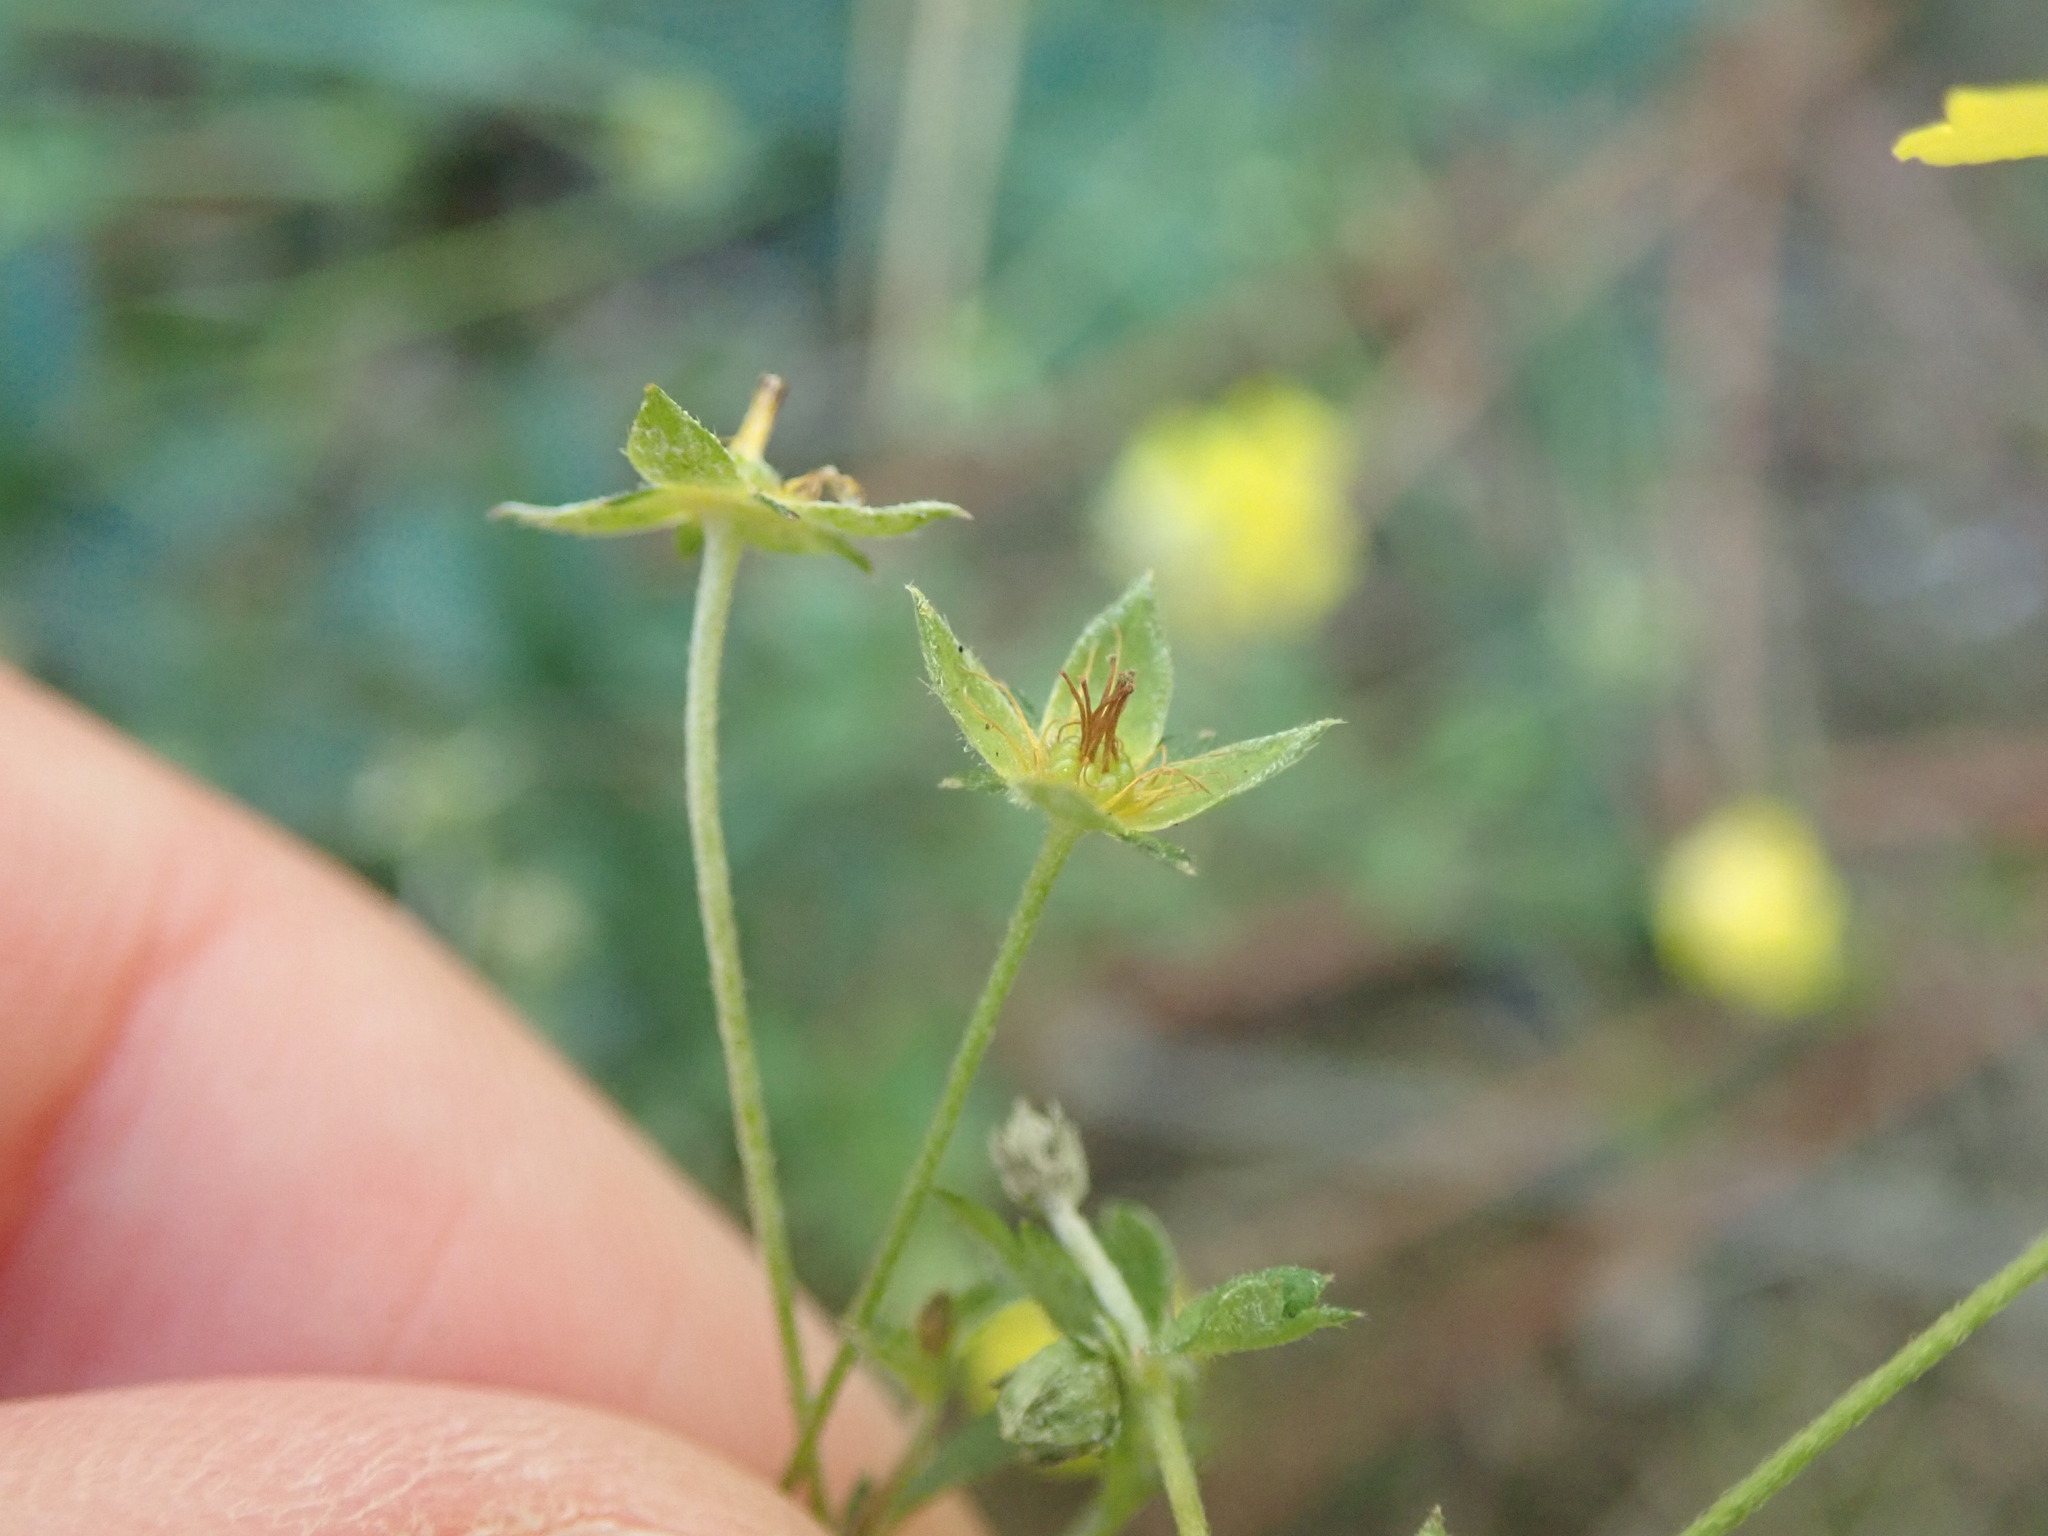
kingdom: Plantae
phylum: Tracheophyta
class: Magnoliopsida
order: Rosales
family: Rosaceae
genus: Potentilla
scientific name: Potentilla erecta
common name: Tormentil
